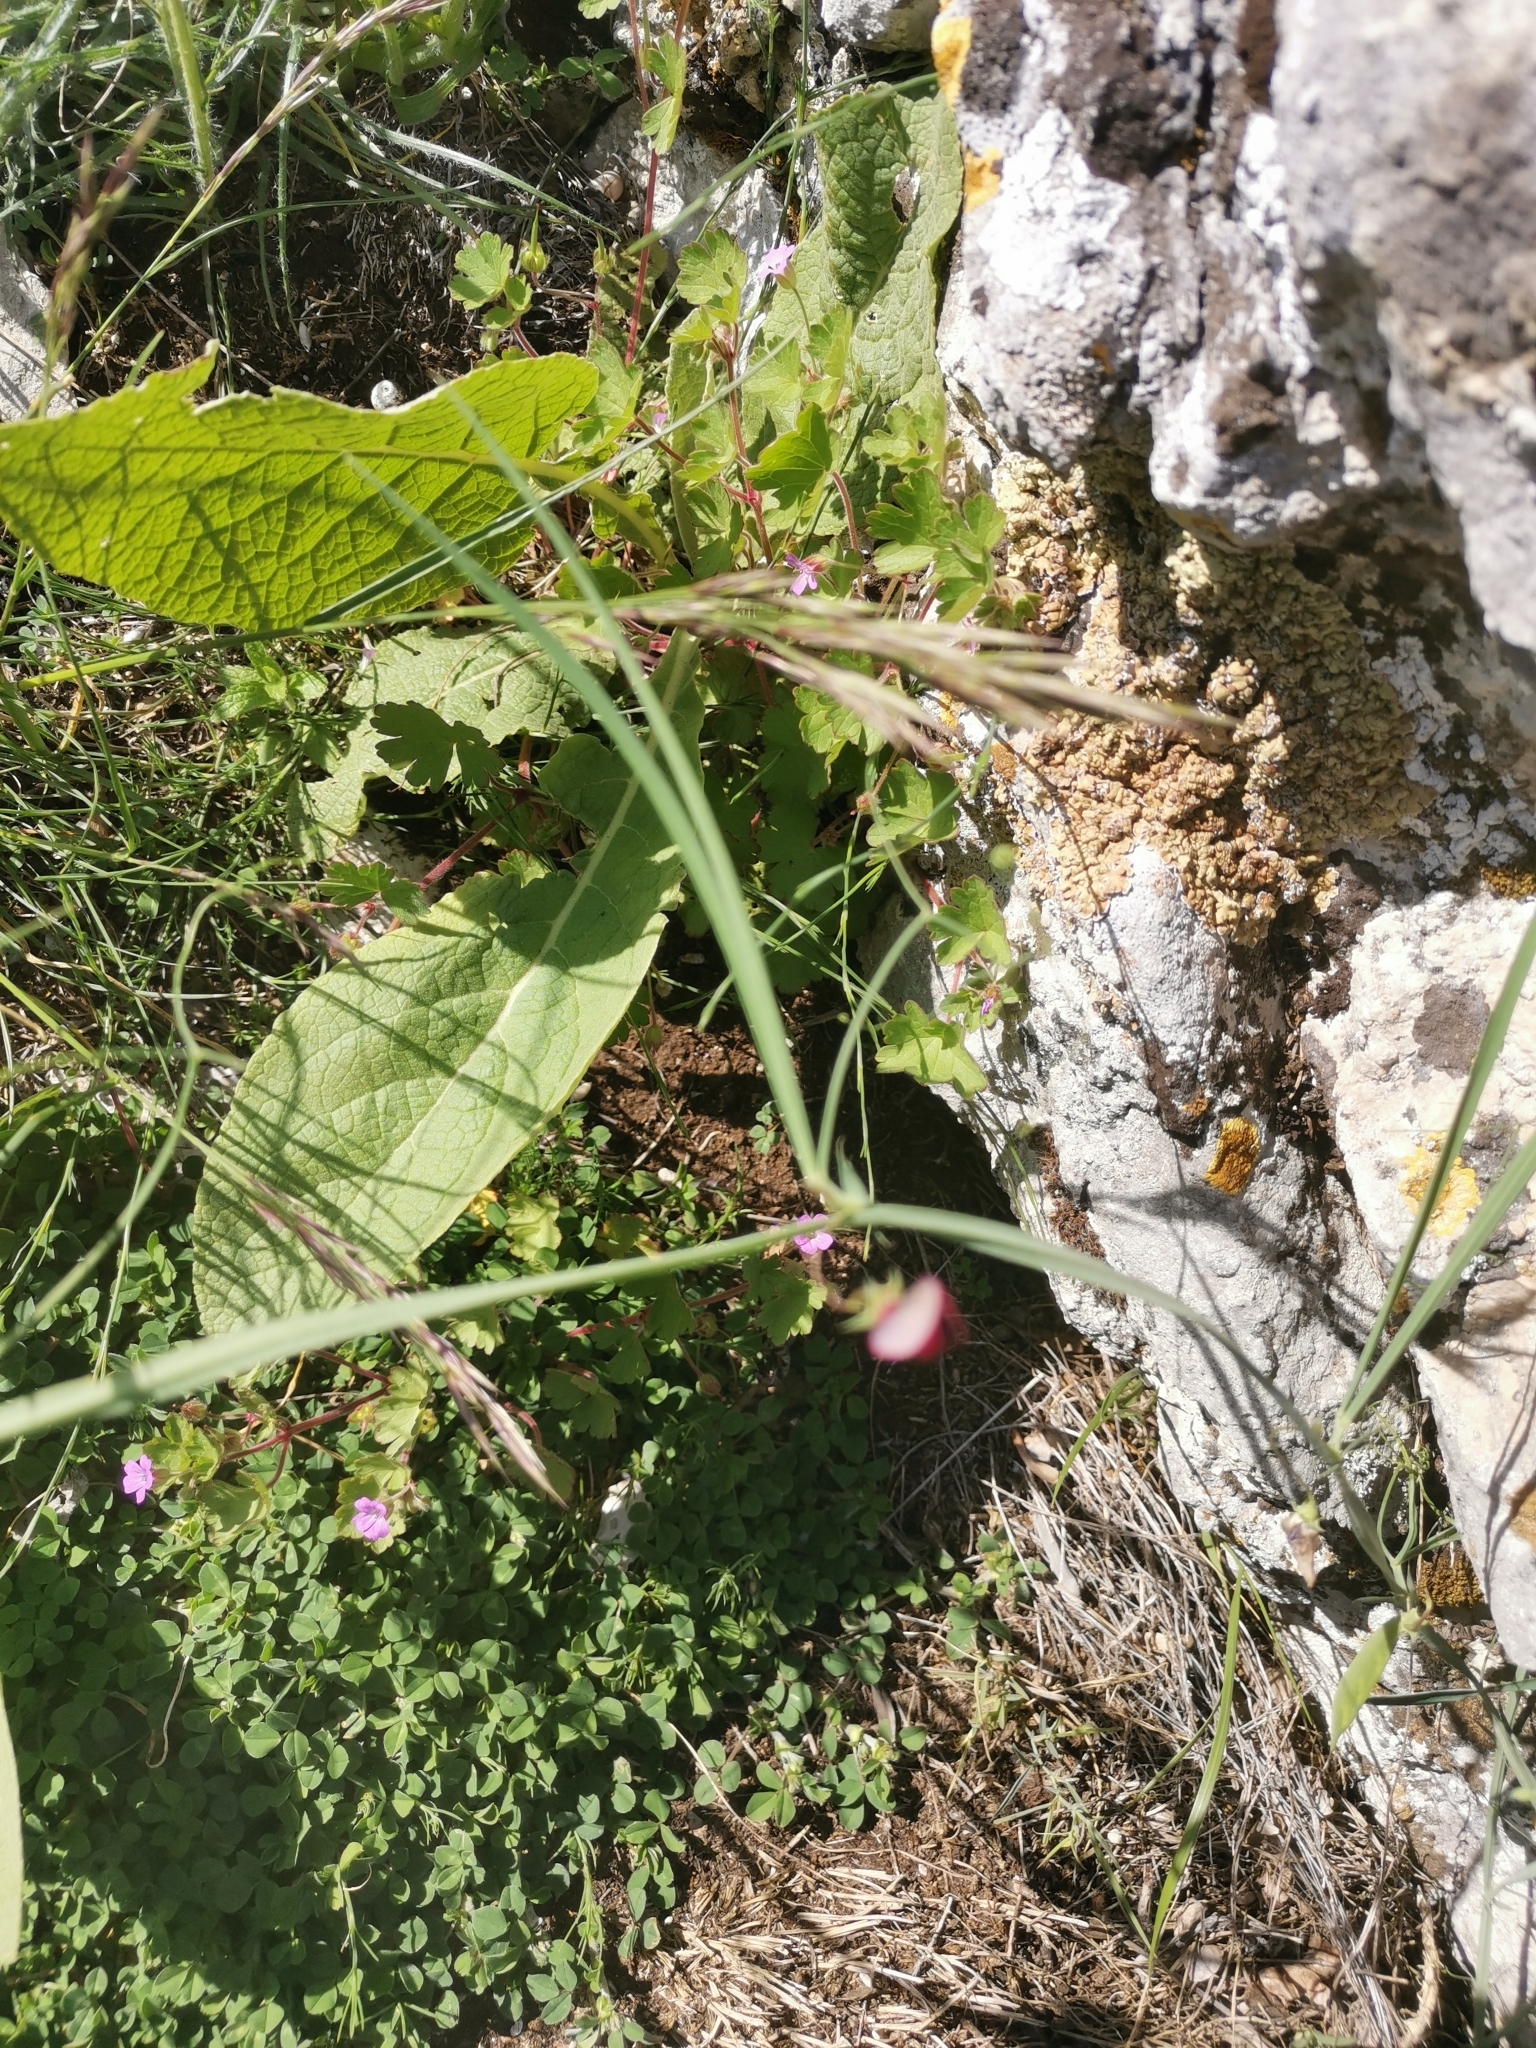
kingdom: Plantae
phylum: Tracheophyta
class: Magnoliopsida
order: Fabales
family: Fabaceae
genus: Lathyrus
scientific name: Lathyrus cicera
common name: Red vetchling
